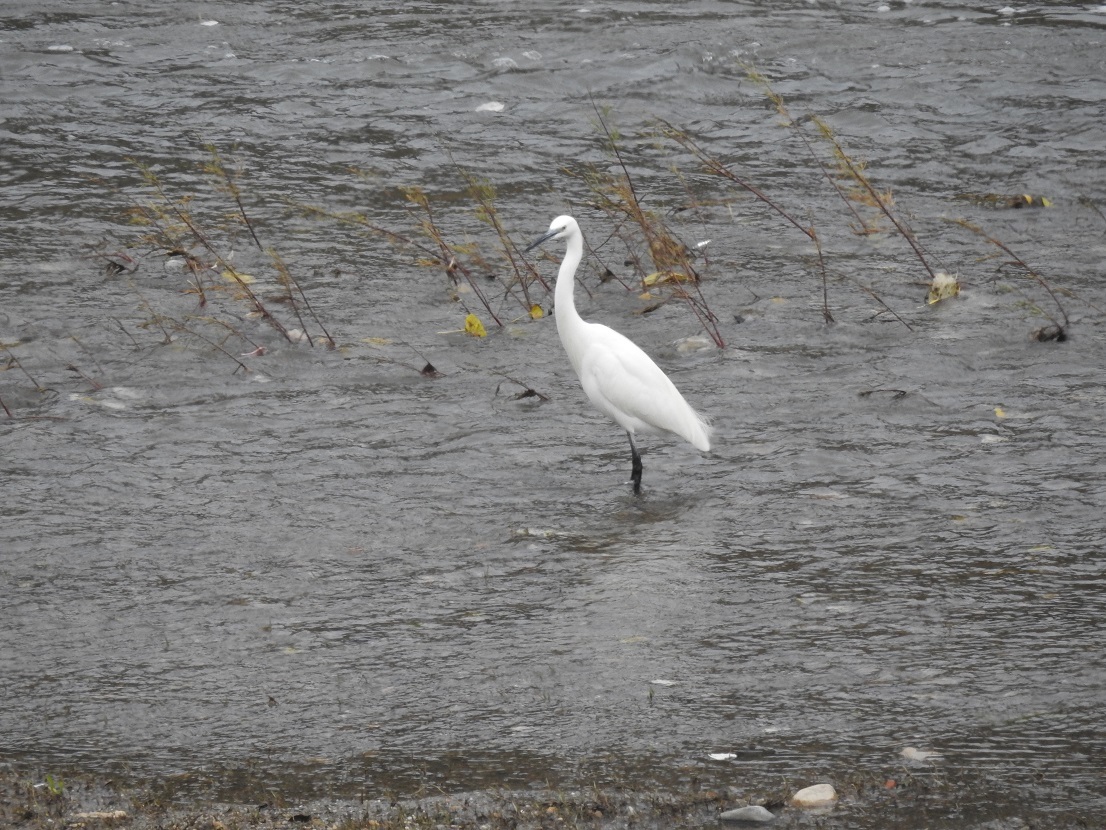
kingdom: Animalia
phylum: Chordata
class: Aves
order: Pelecaniformes
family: Ardeidae
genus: Egretta
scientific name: Egretta garzetta
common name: Little egret
